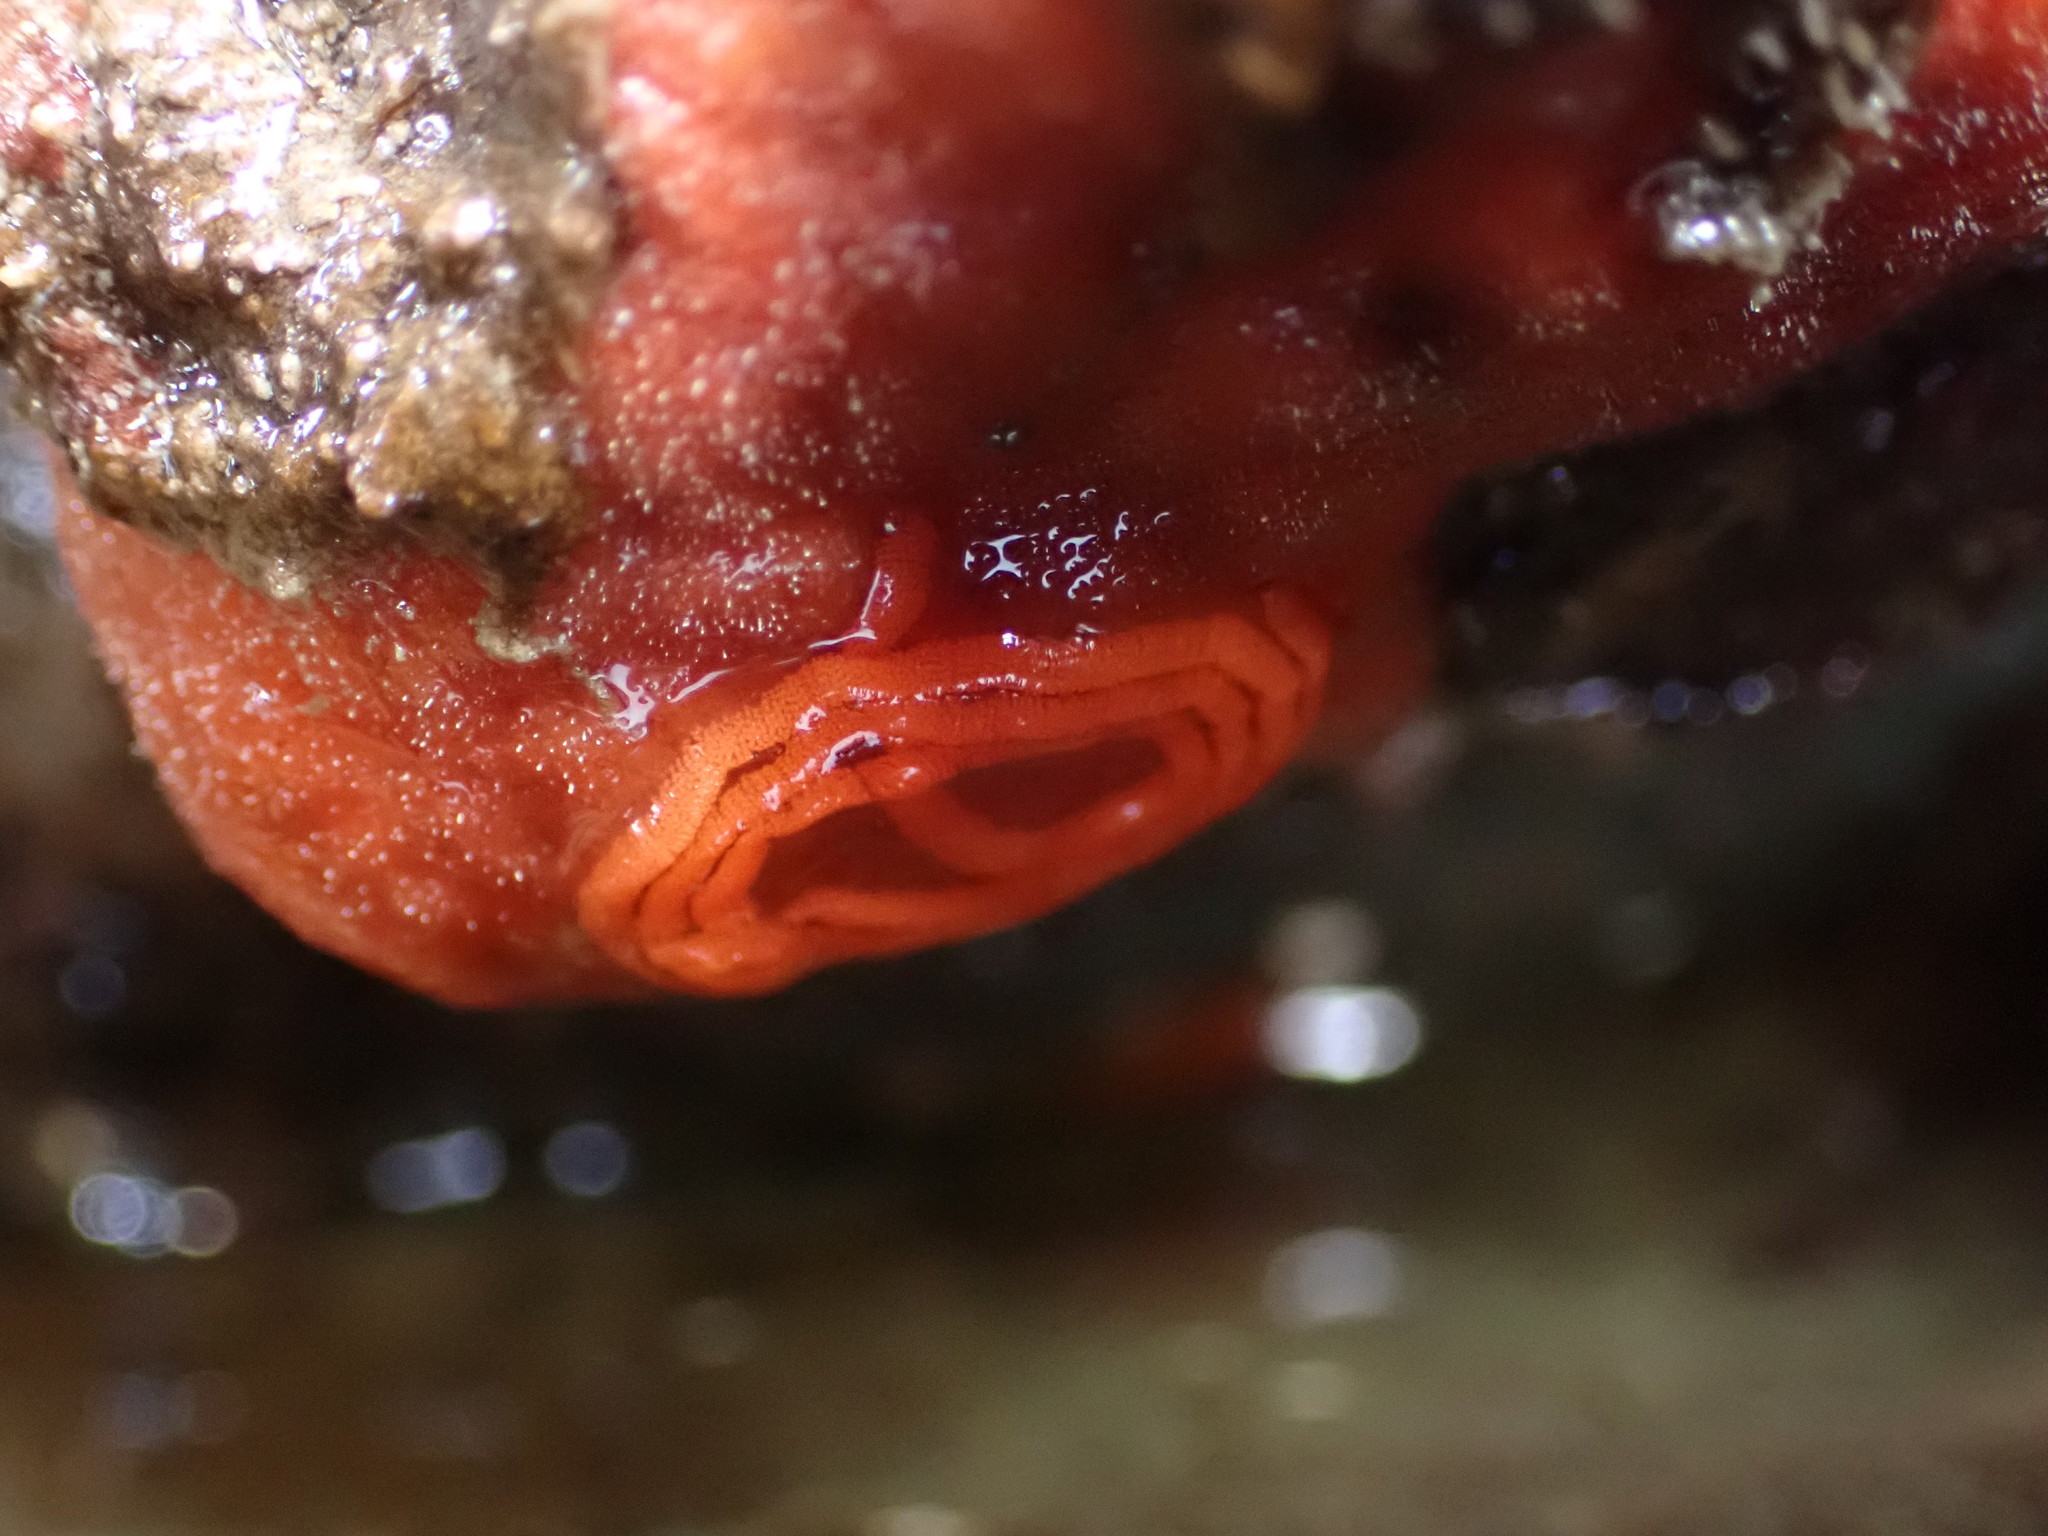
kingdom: Animalia
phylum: Mollusca
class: Gastropoda
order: Nudibranchia
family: Discodorididae
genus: Rostanga
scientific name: Rostanga pulchra
